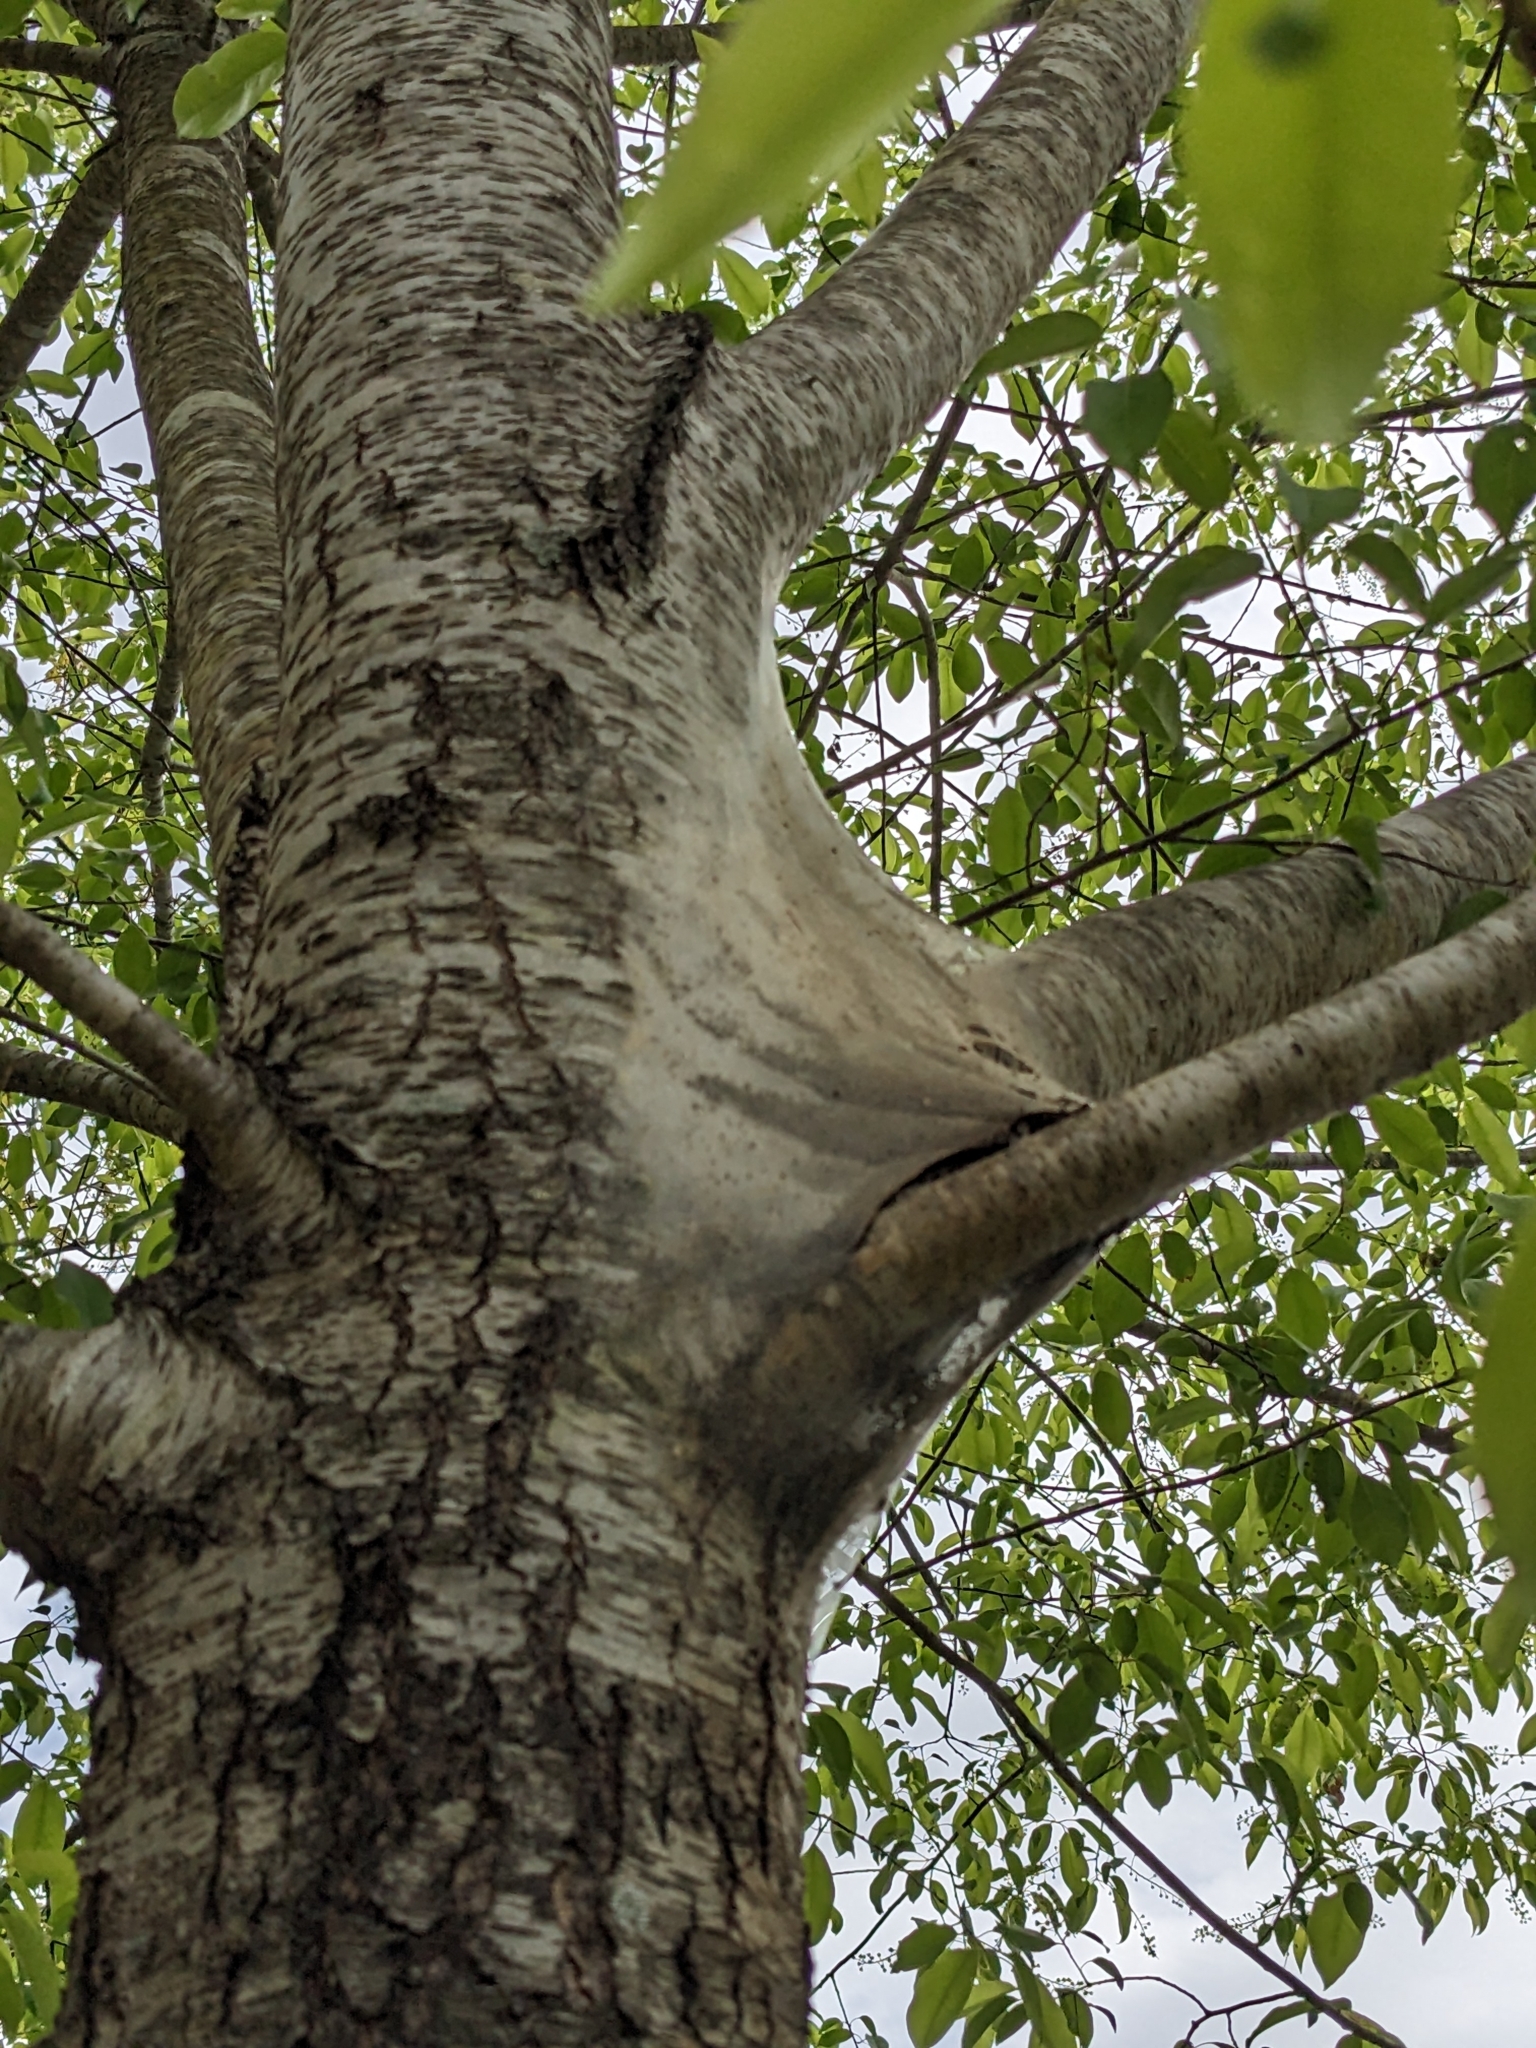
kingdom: Animalia
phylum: Arthropoda
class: Insecta
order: Lepidoptera
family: Lasiocampidae
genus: Malacosoma
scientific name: Malacosoma americana
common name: Eastern tent caterpillar moth
